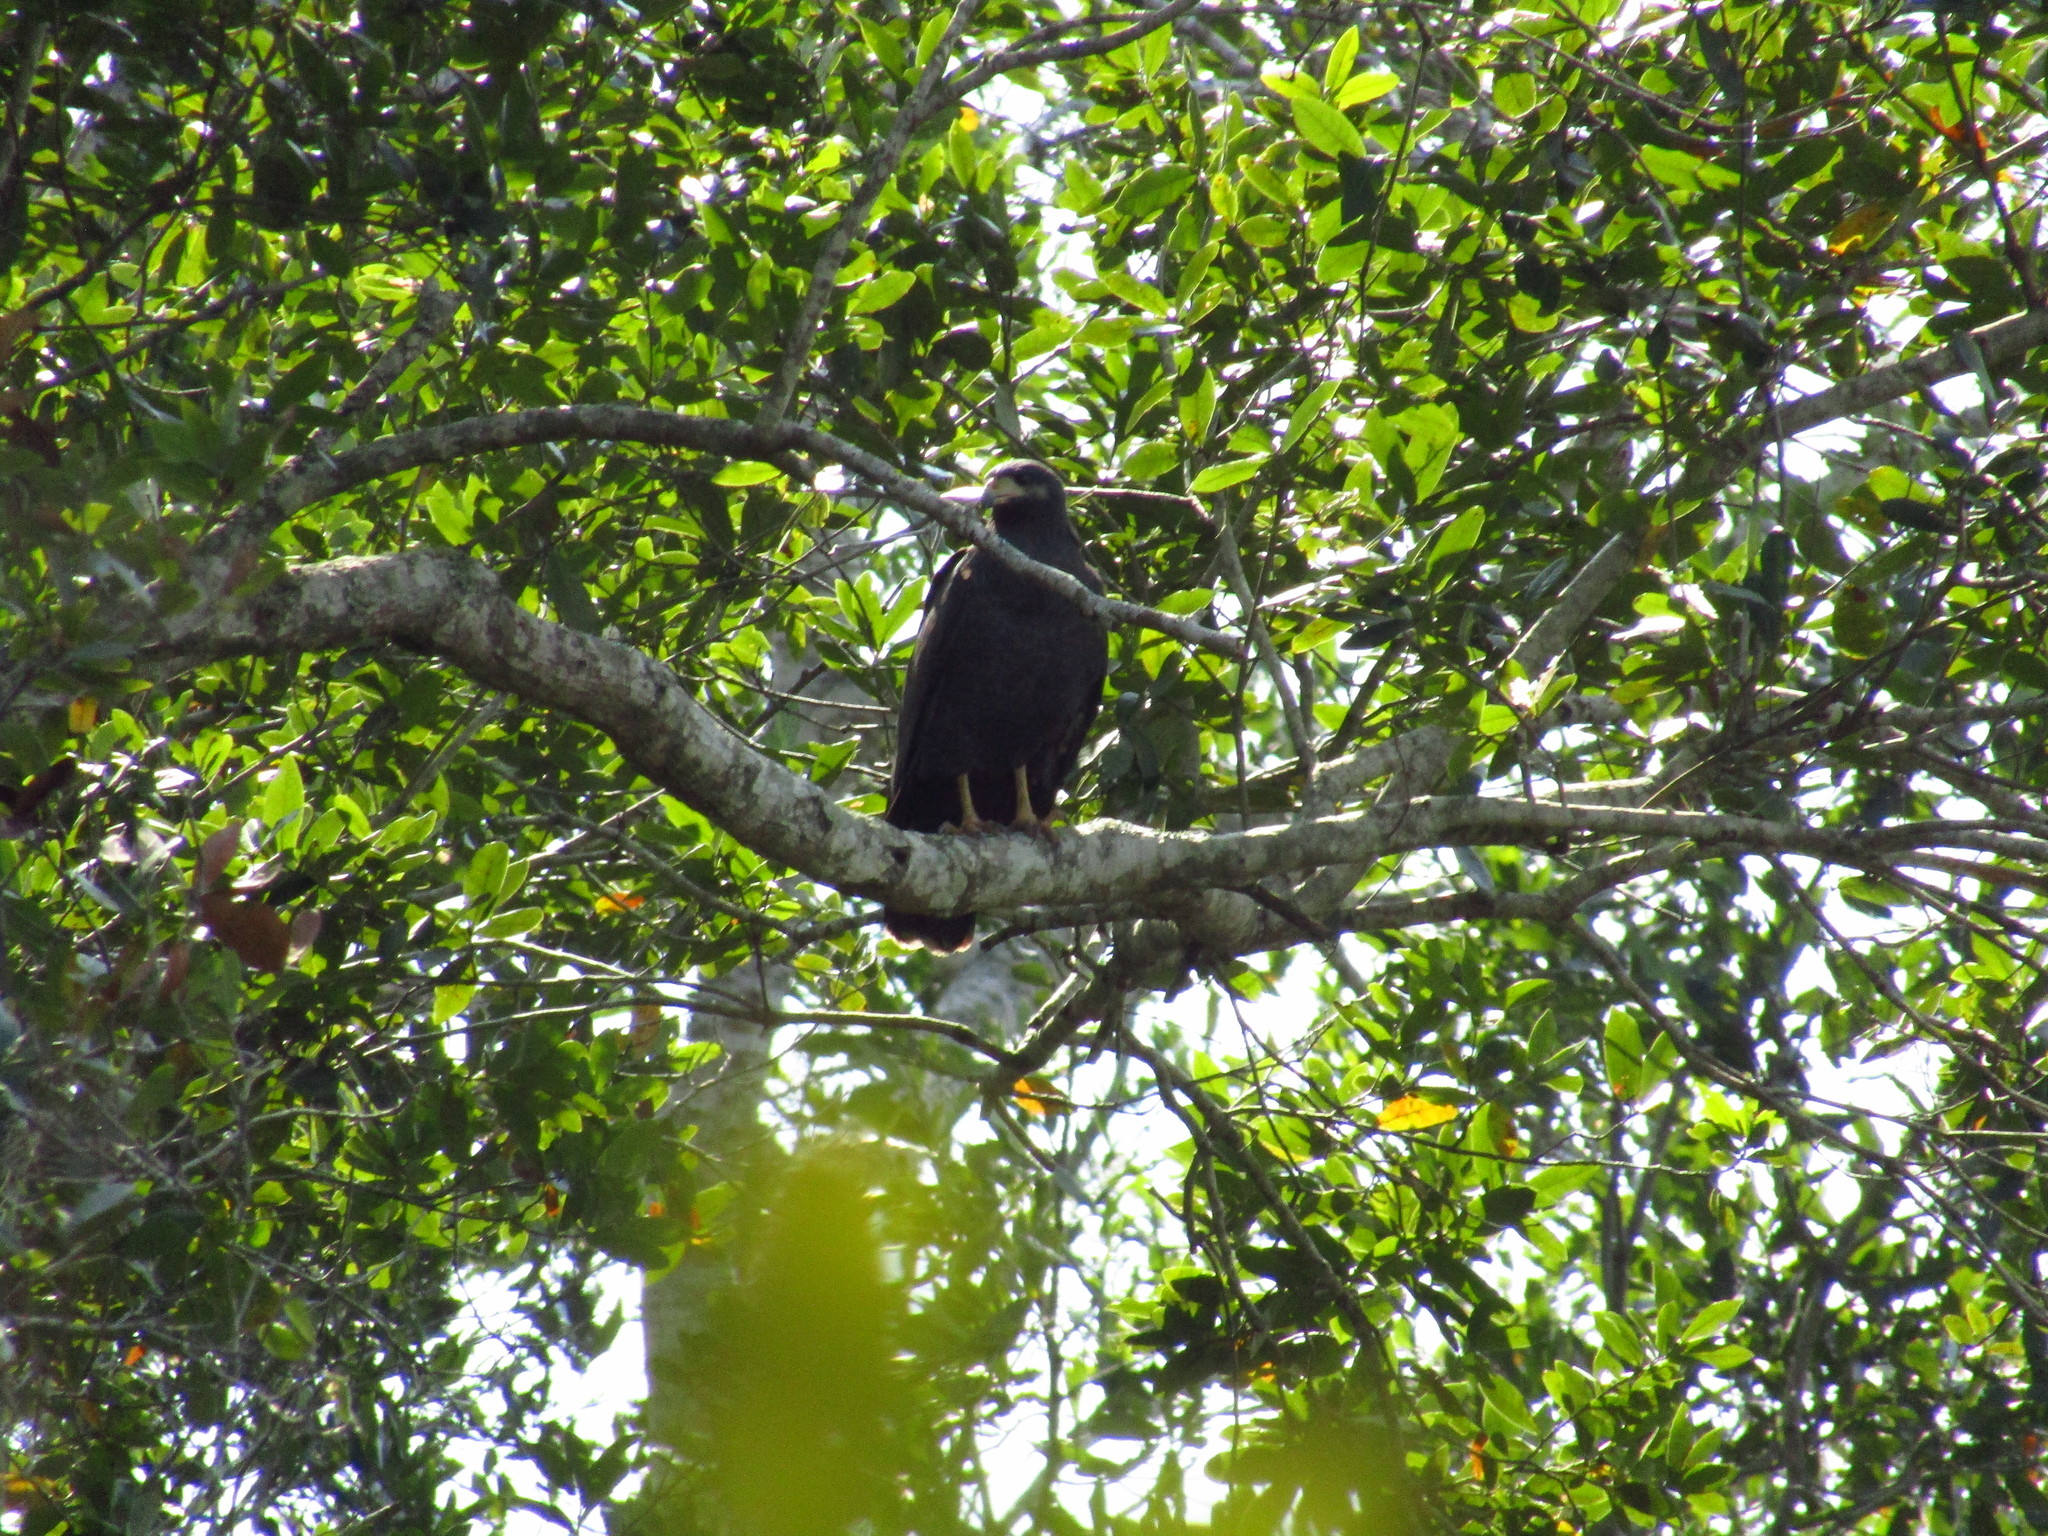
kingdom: Animalia
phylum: Chordata
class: Aves
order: Accipitriformes
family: Accipitridae
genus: Buteogallus
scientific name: Buteogallus anthracinus
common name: Common black hawk
